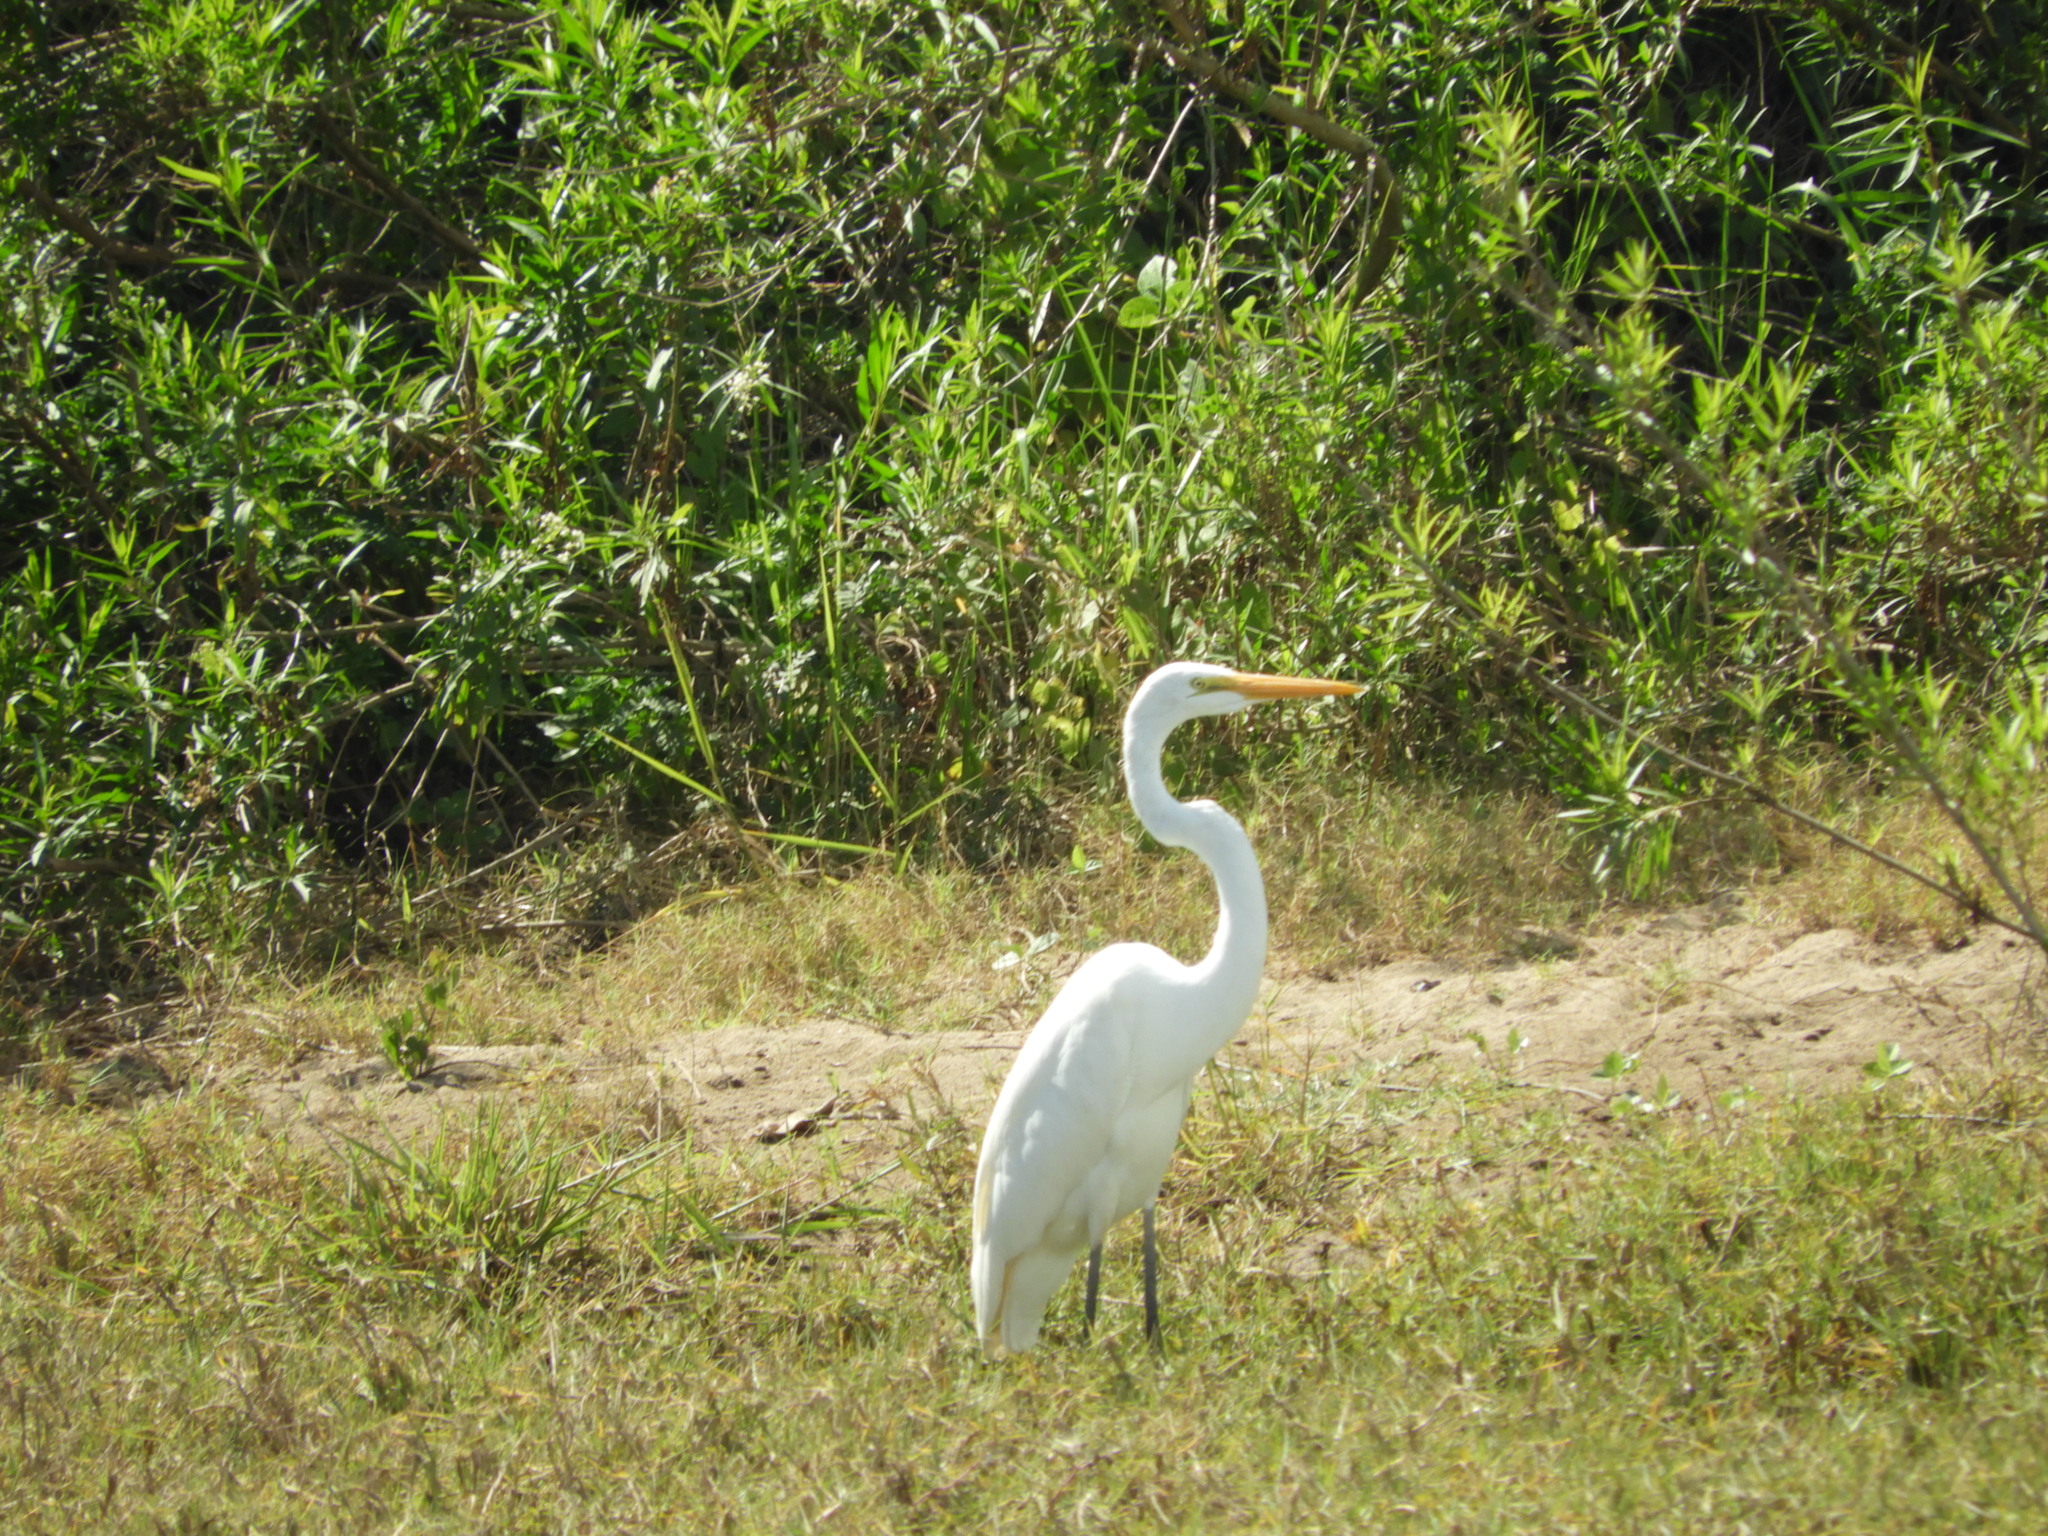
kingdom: Animalia
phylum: Chordata
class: Aves
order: Pelecaniformes
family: Ardeidae
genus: Ardea
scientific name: Ardea alba
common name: Great egret
